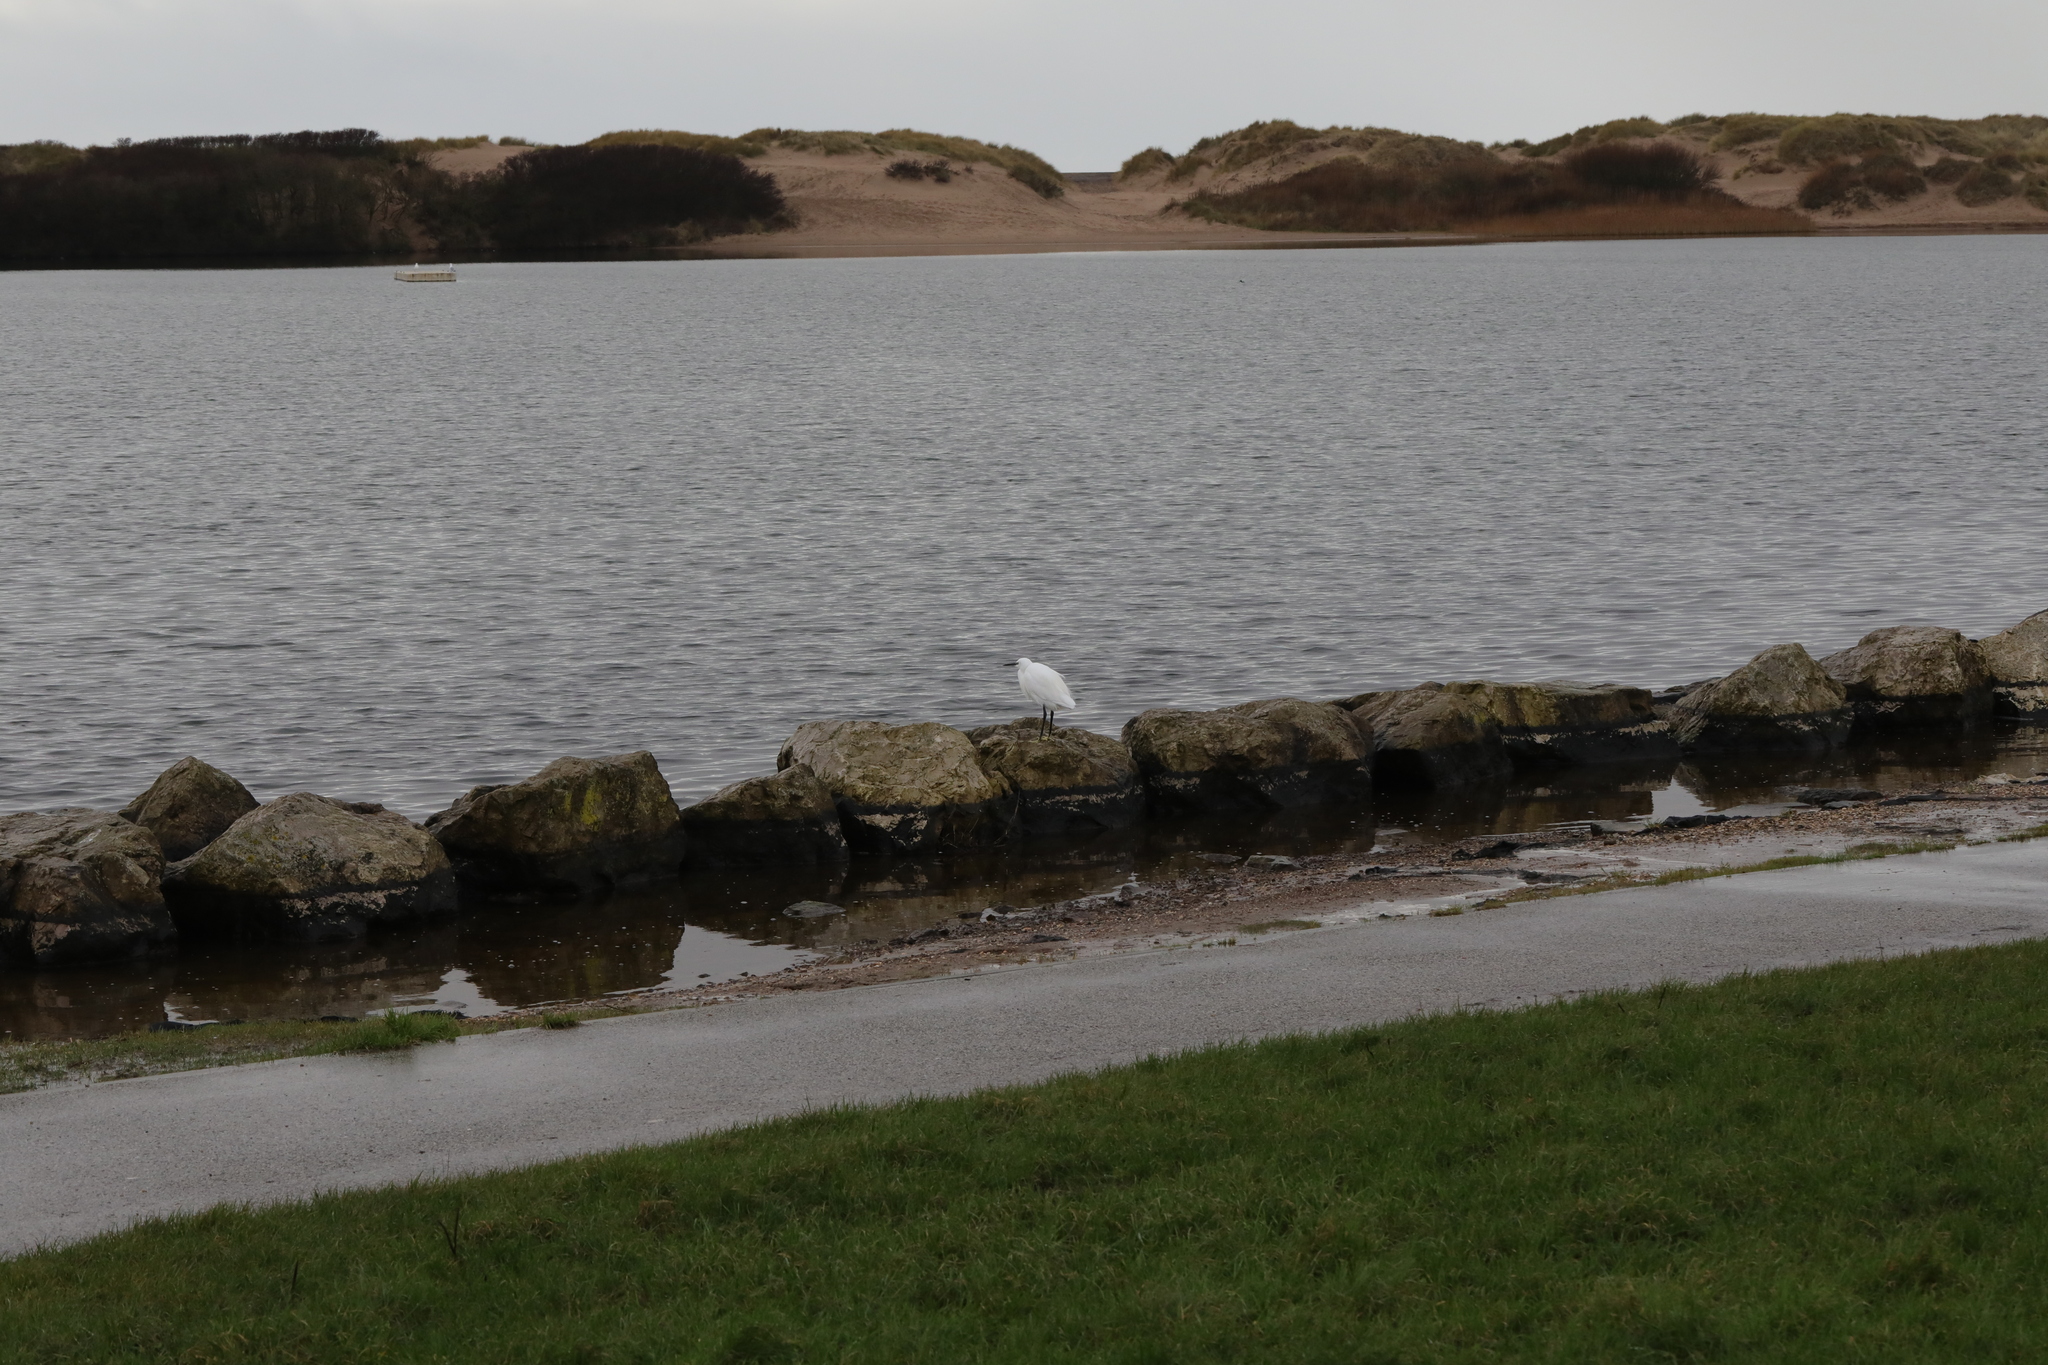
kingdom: Animalia
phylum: Chordata
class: Aves
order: Pelecaniformes
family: Ardeidae
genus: Egretta
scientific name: Egretta garzetta
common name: Little egret
